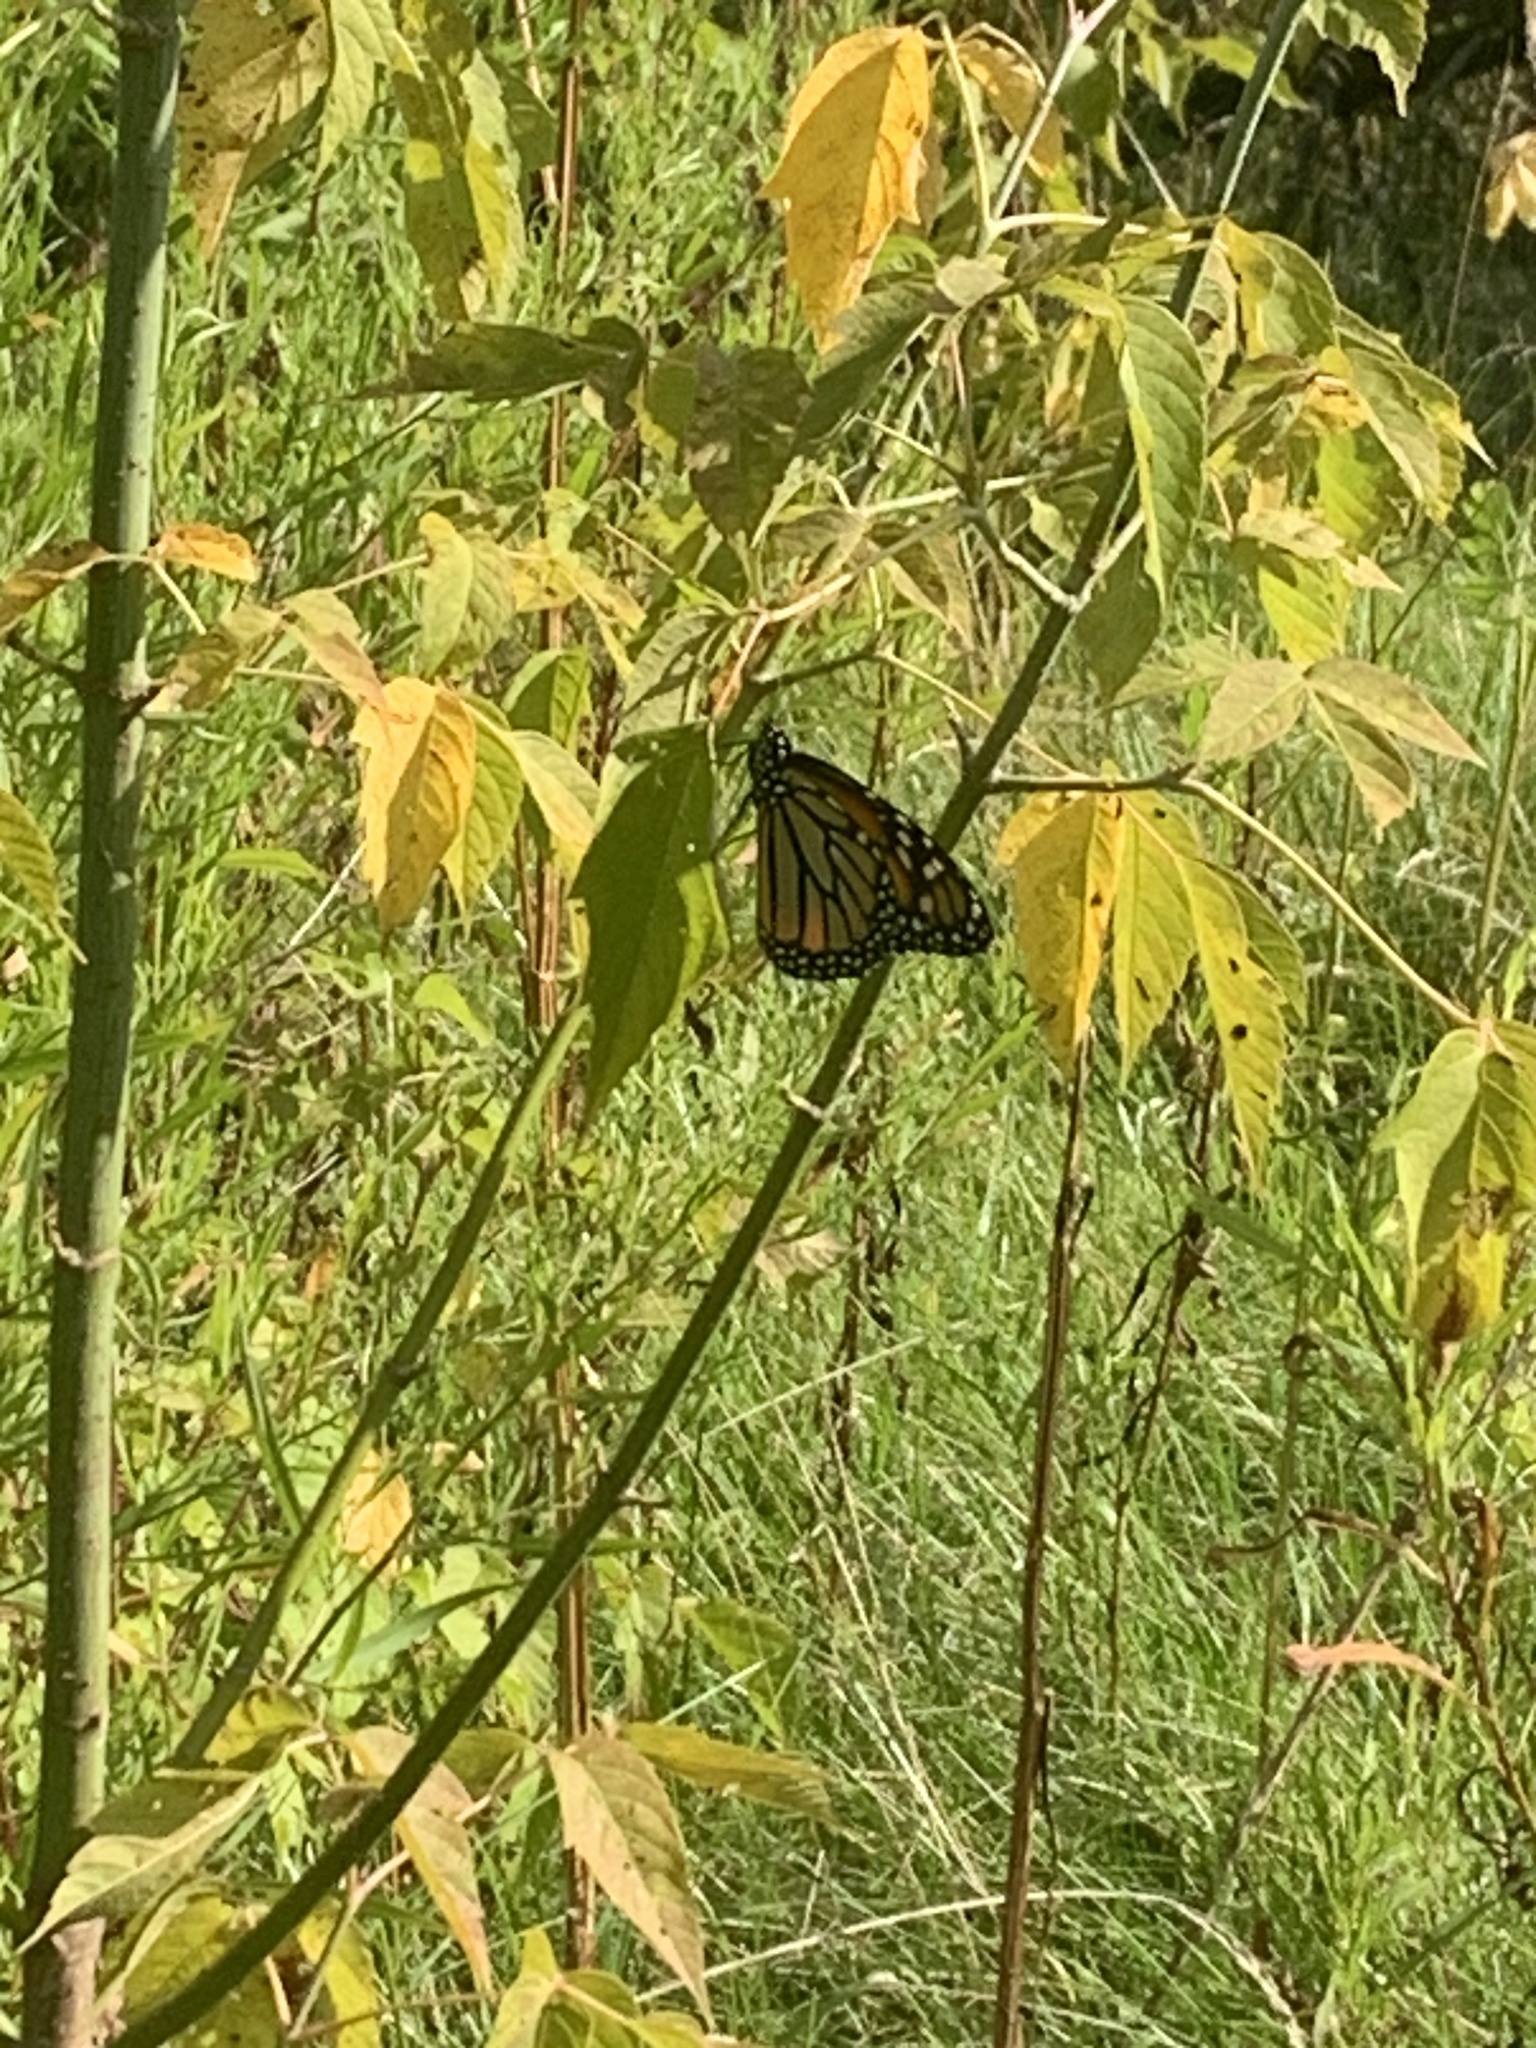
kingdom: Animalia
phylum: Arthropoda
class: Insecta
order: Lepidoptera
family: Nymphalidae
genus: Danaus
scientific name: Danaus plexippus
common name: Monarch
